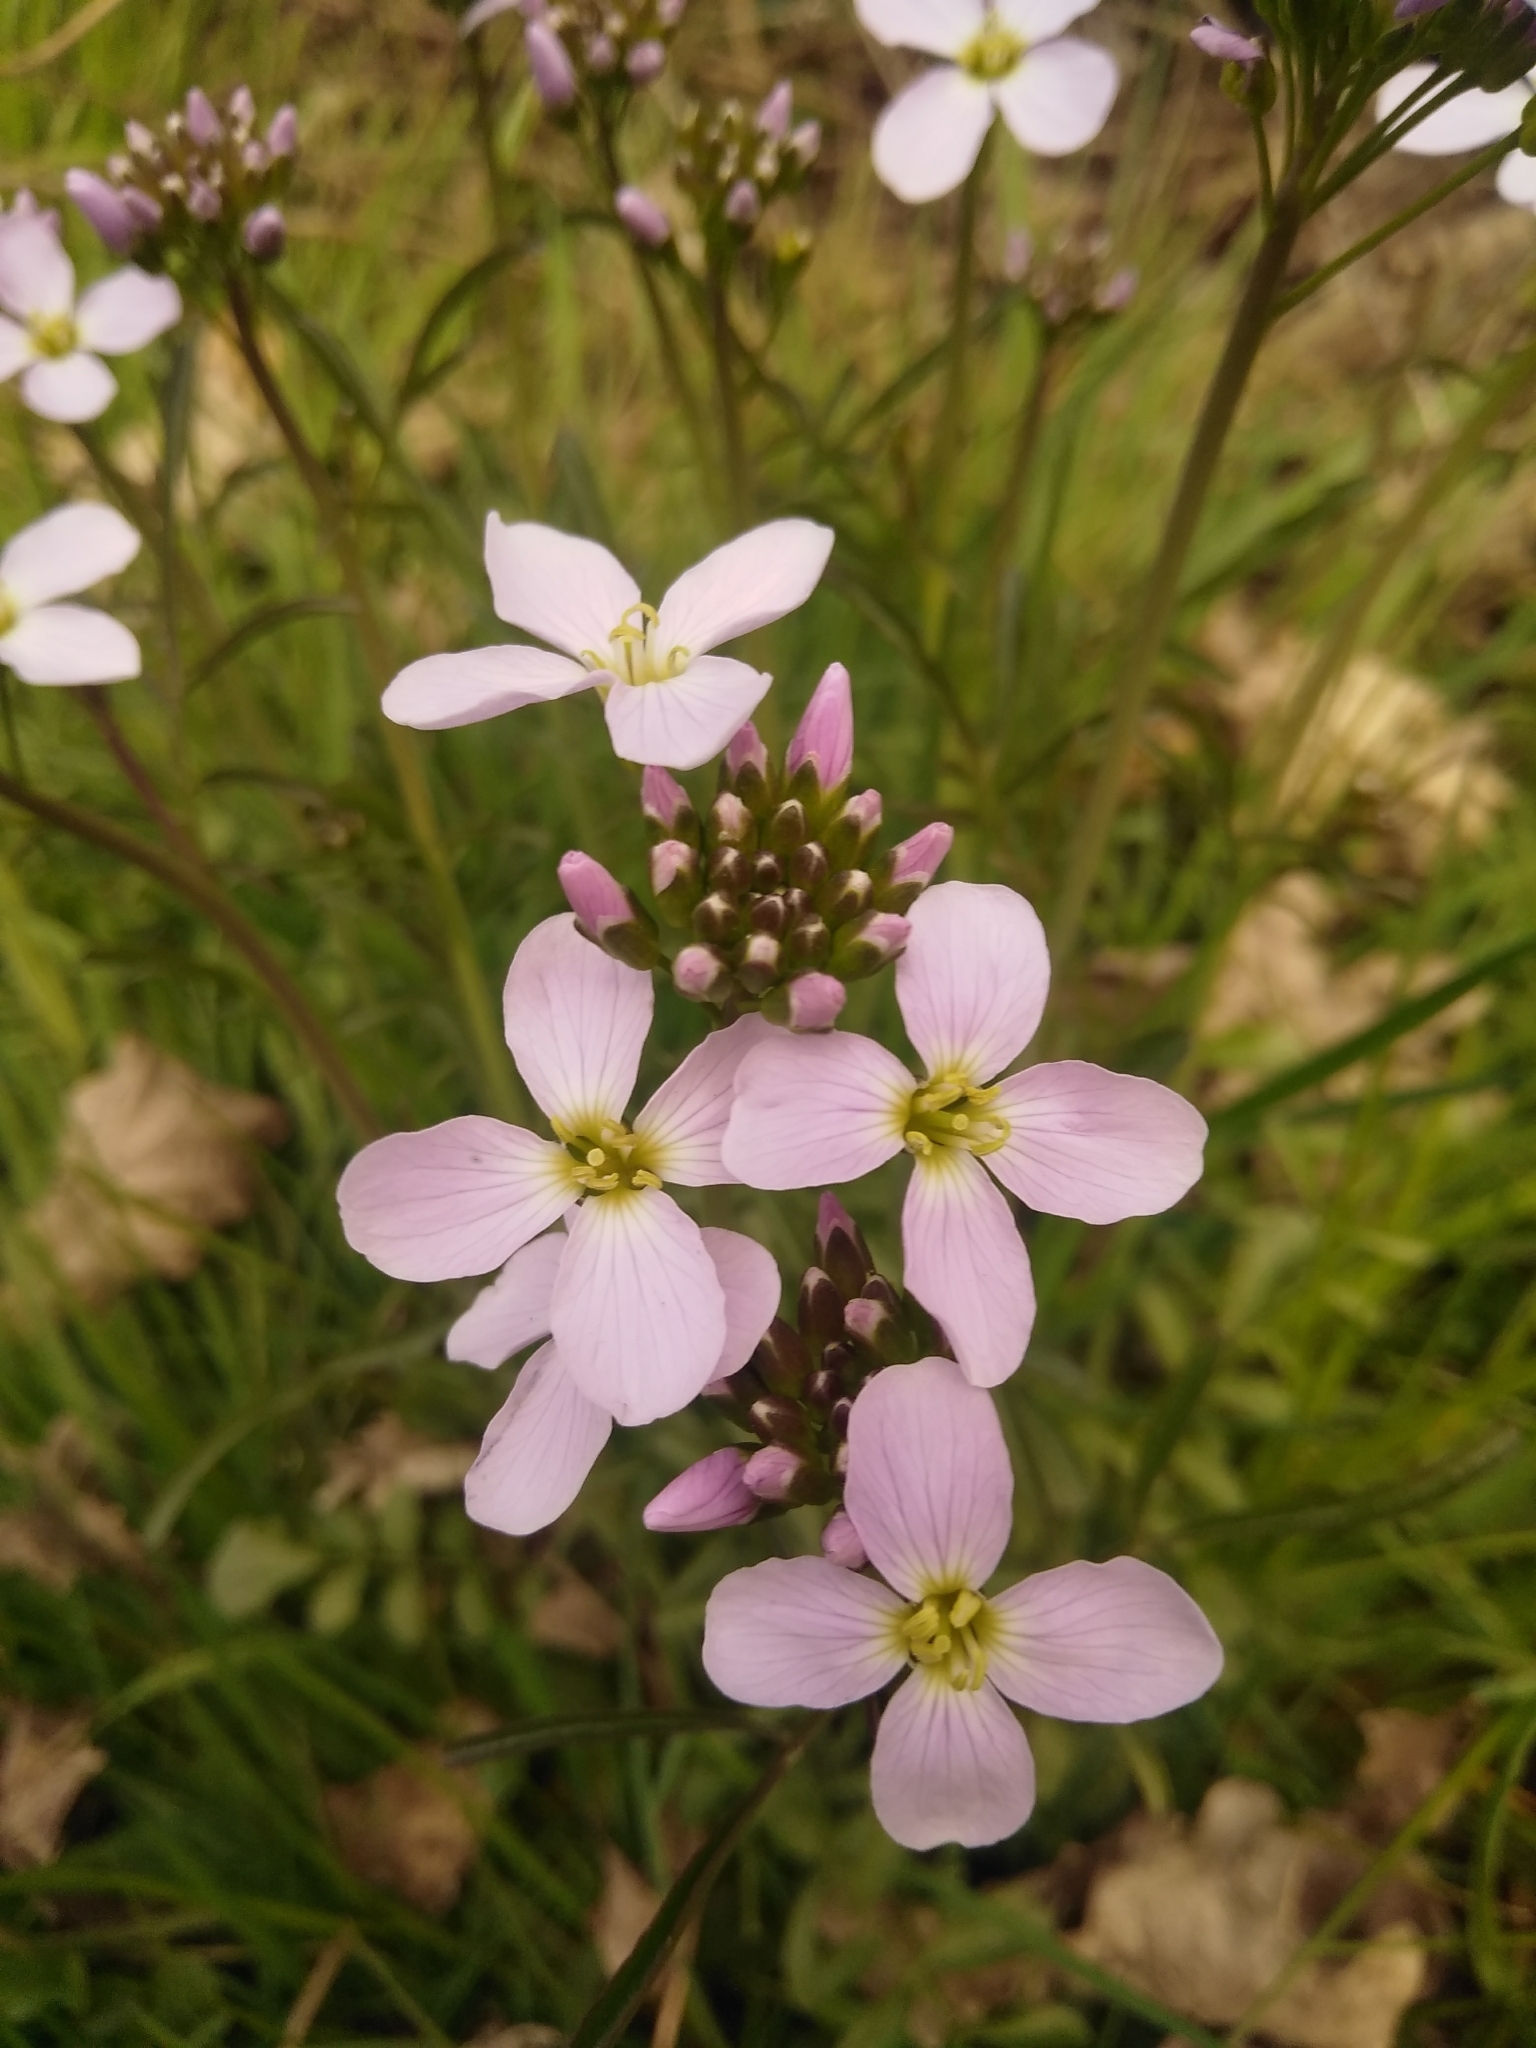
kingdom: Plantae
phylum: Tracheophyta
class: Magnoliopsida
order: Brassicales
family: Brassicaceae
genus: Cardamine
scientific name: Cardamine pratensis
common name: Cuckoo flower
